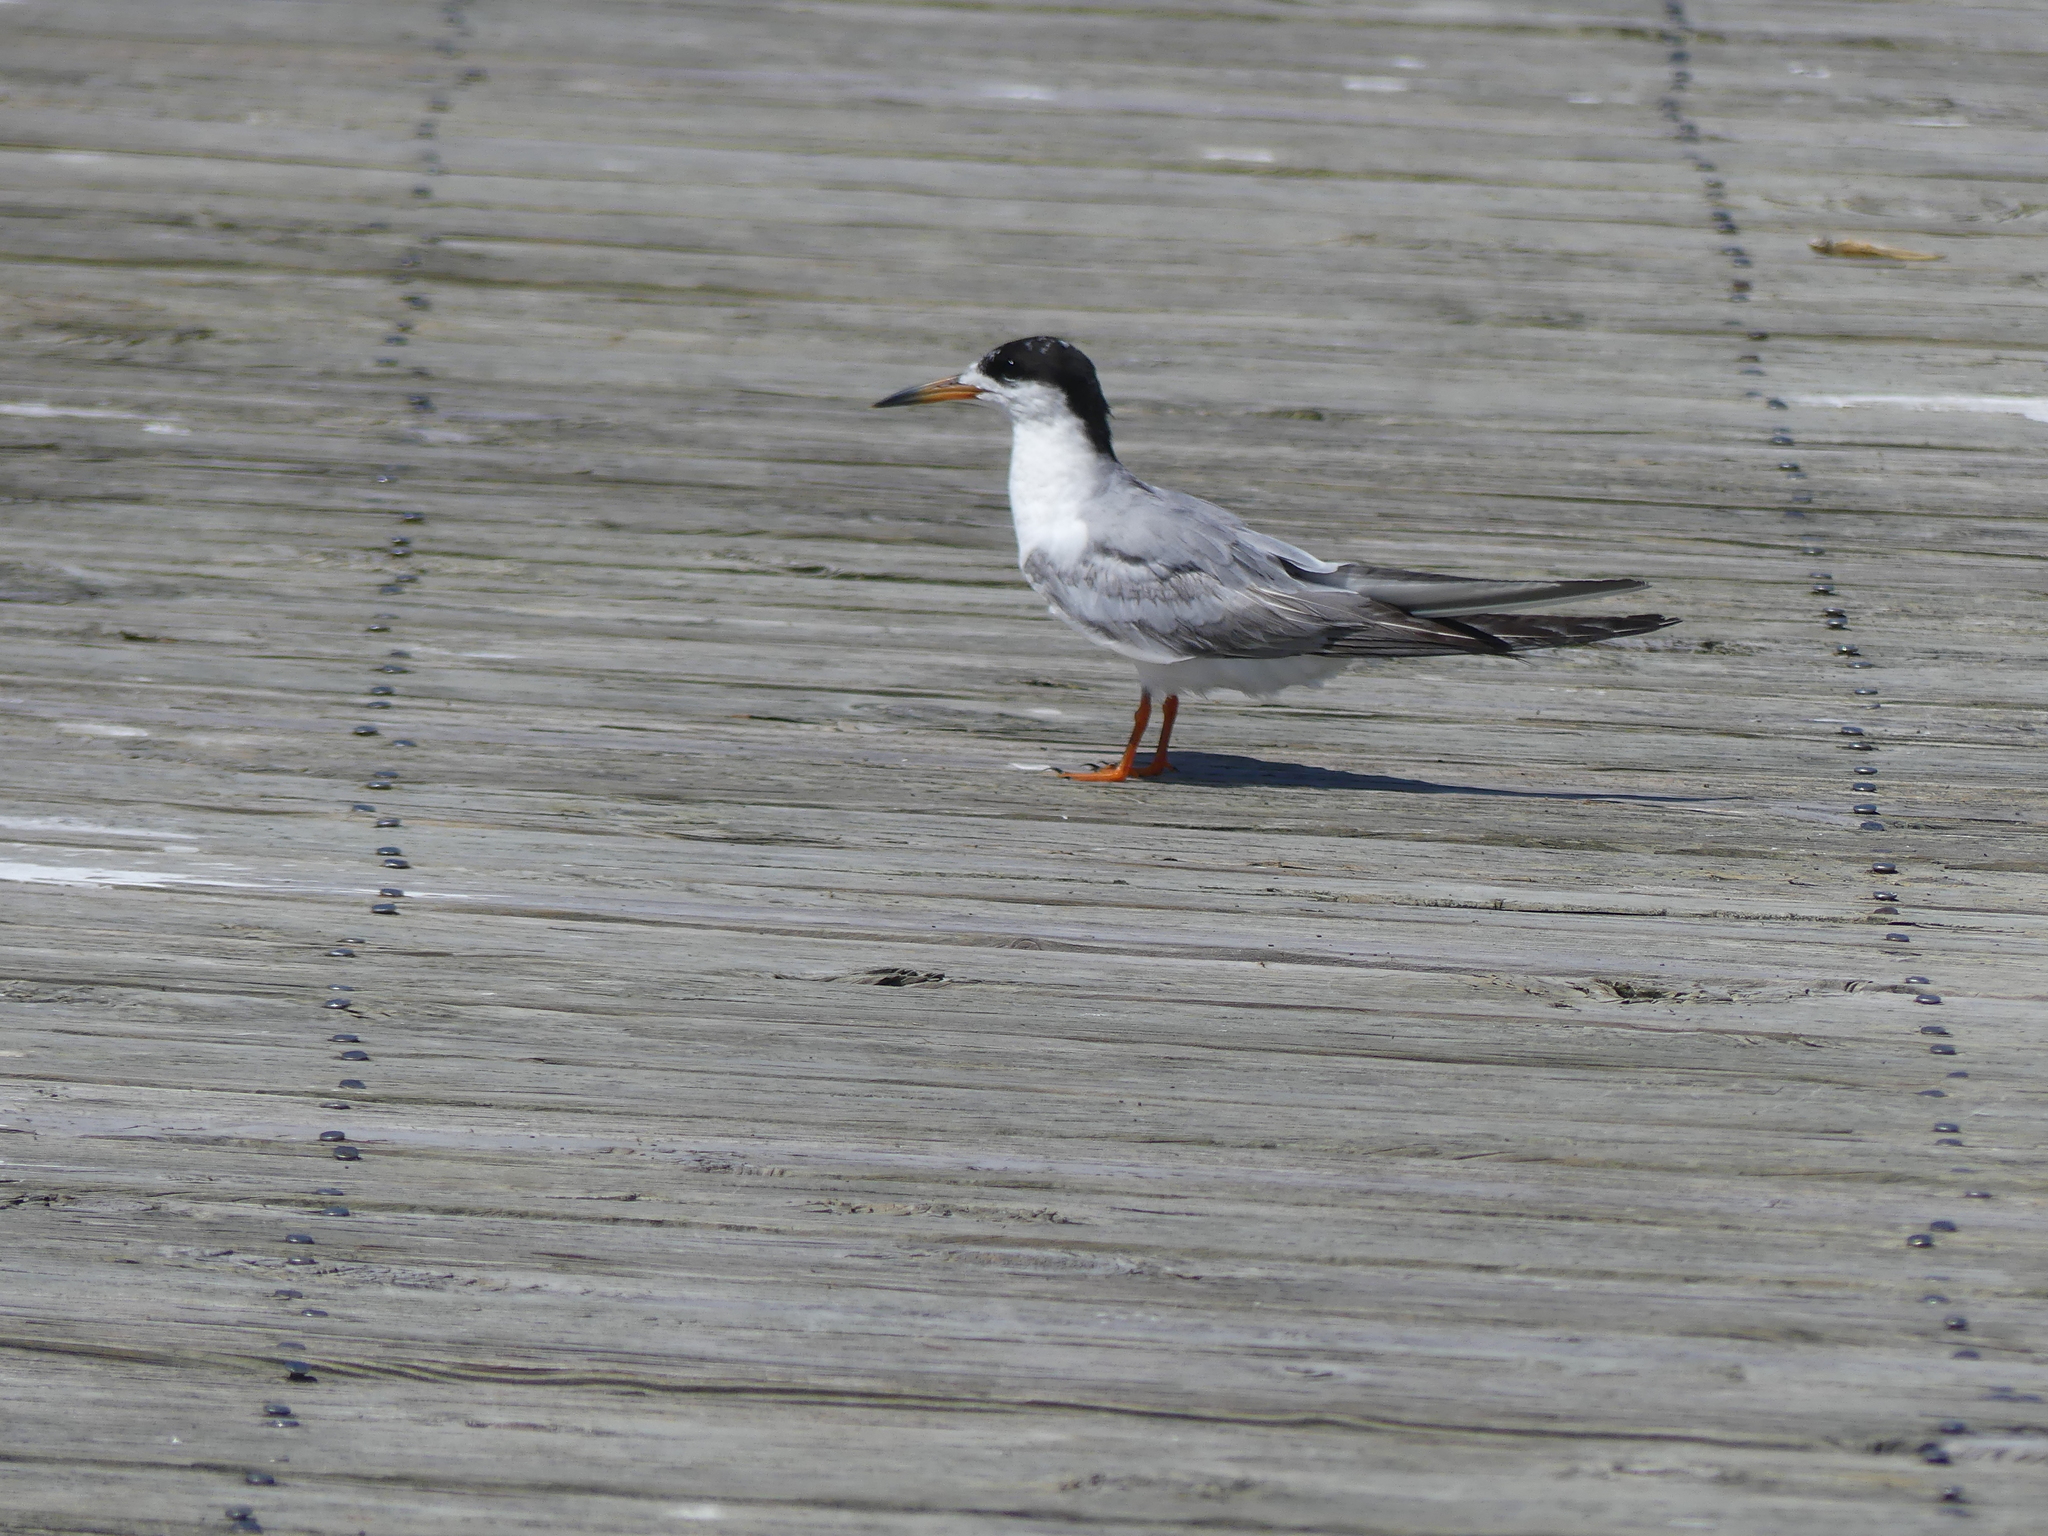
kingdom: Animalia
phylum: Chordata
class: Aves
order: Charadriiformes
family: Laridae
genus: Sterna
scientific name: Sterna forsteri
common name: Forster's tern
